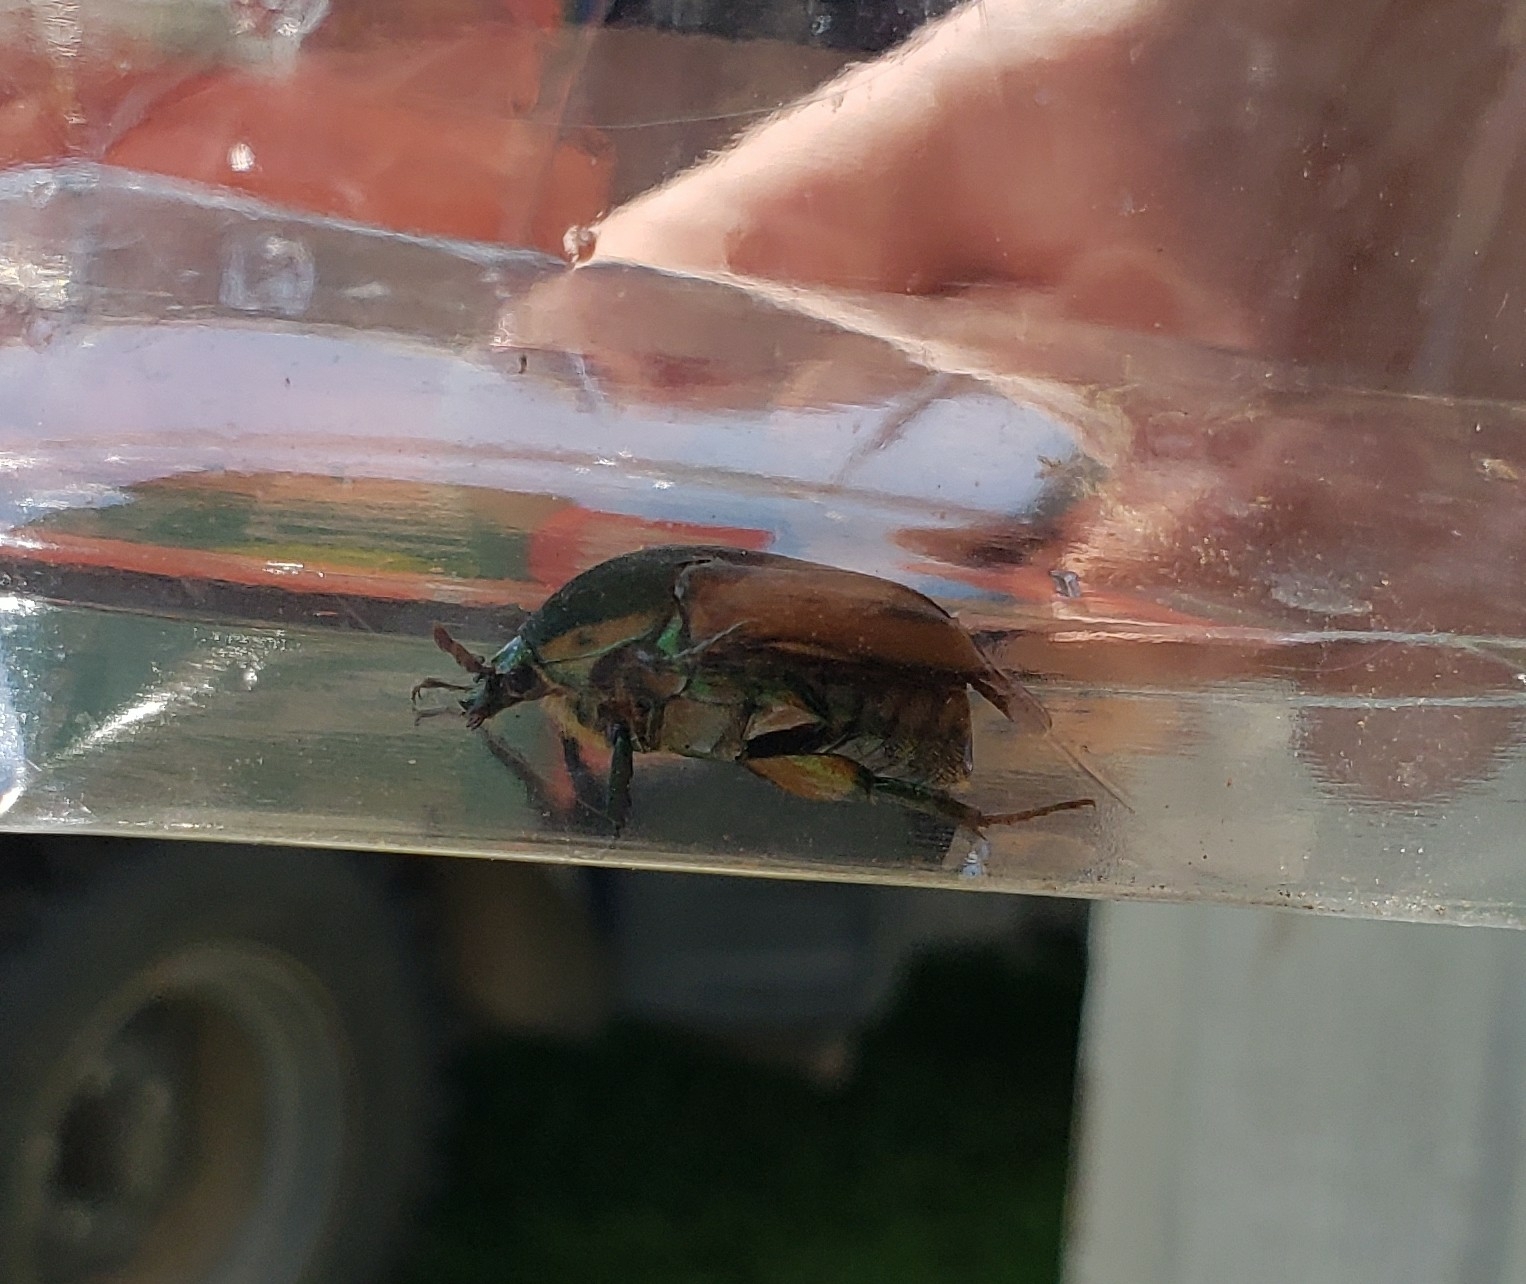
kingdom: Animalia
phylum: Arthropoda
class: Insecta
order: Coleoptera
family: Scarabaeidae
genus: Cotinis
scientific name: Cotinis nitida
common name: Common green june beetle
